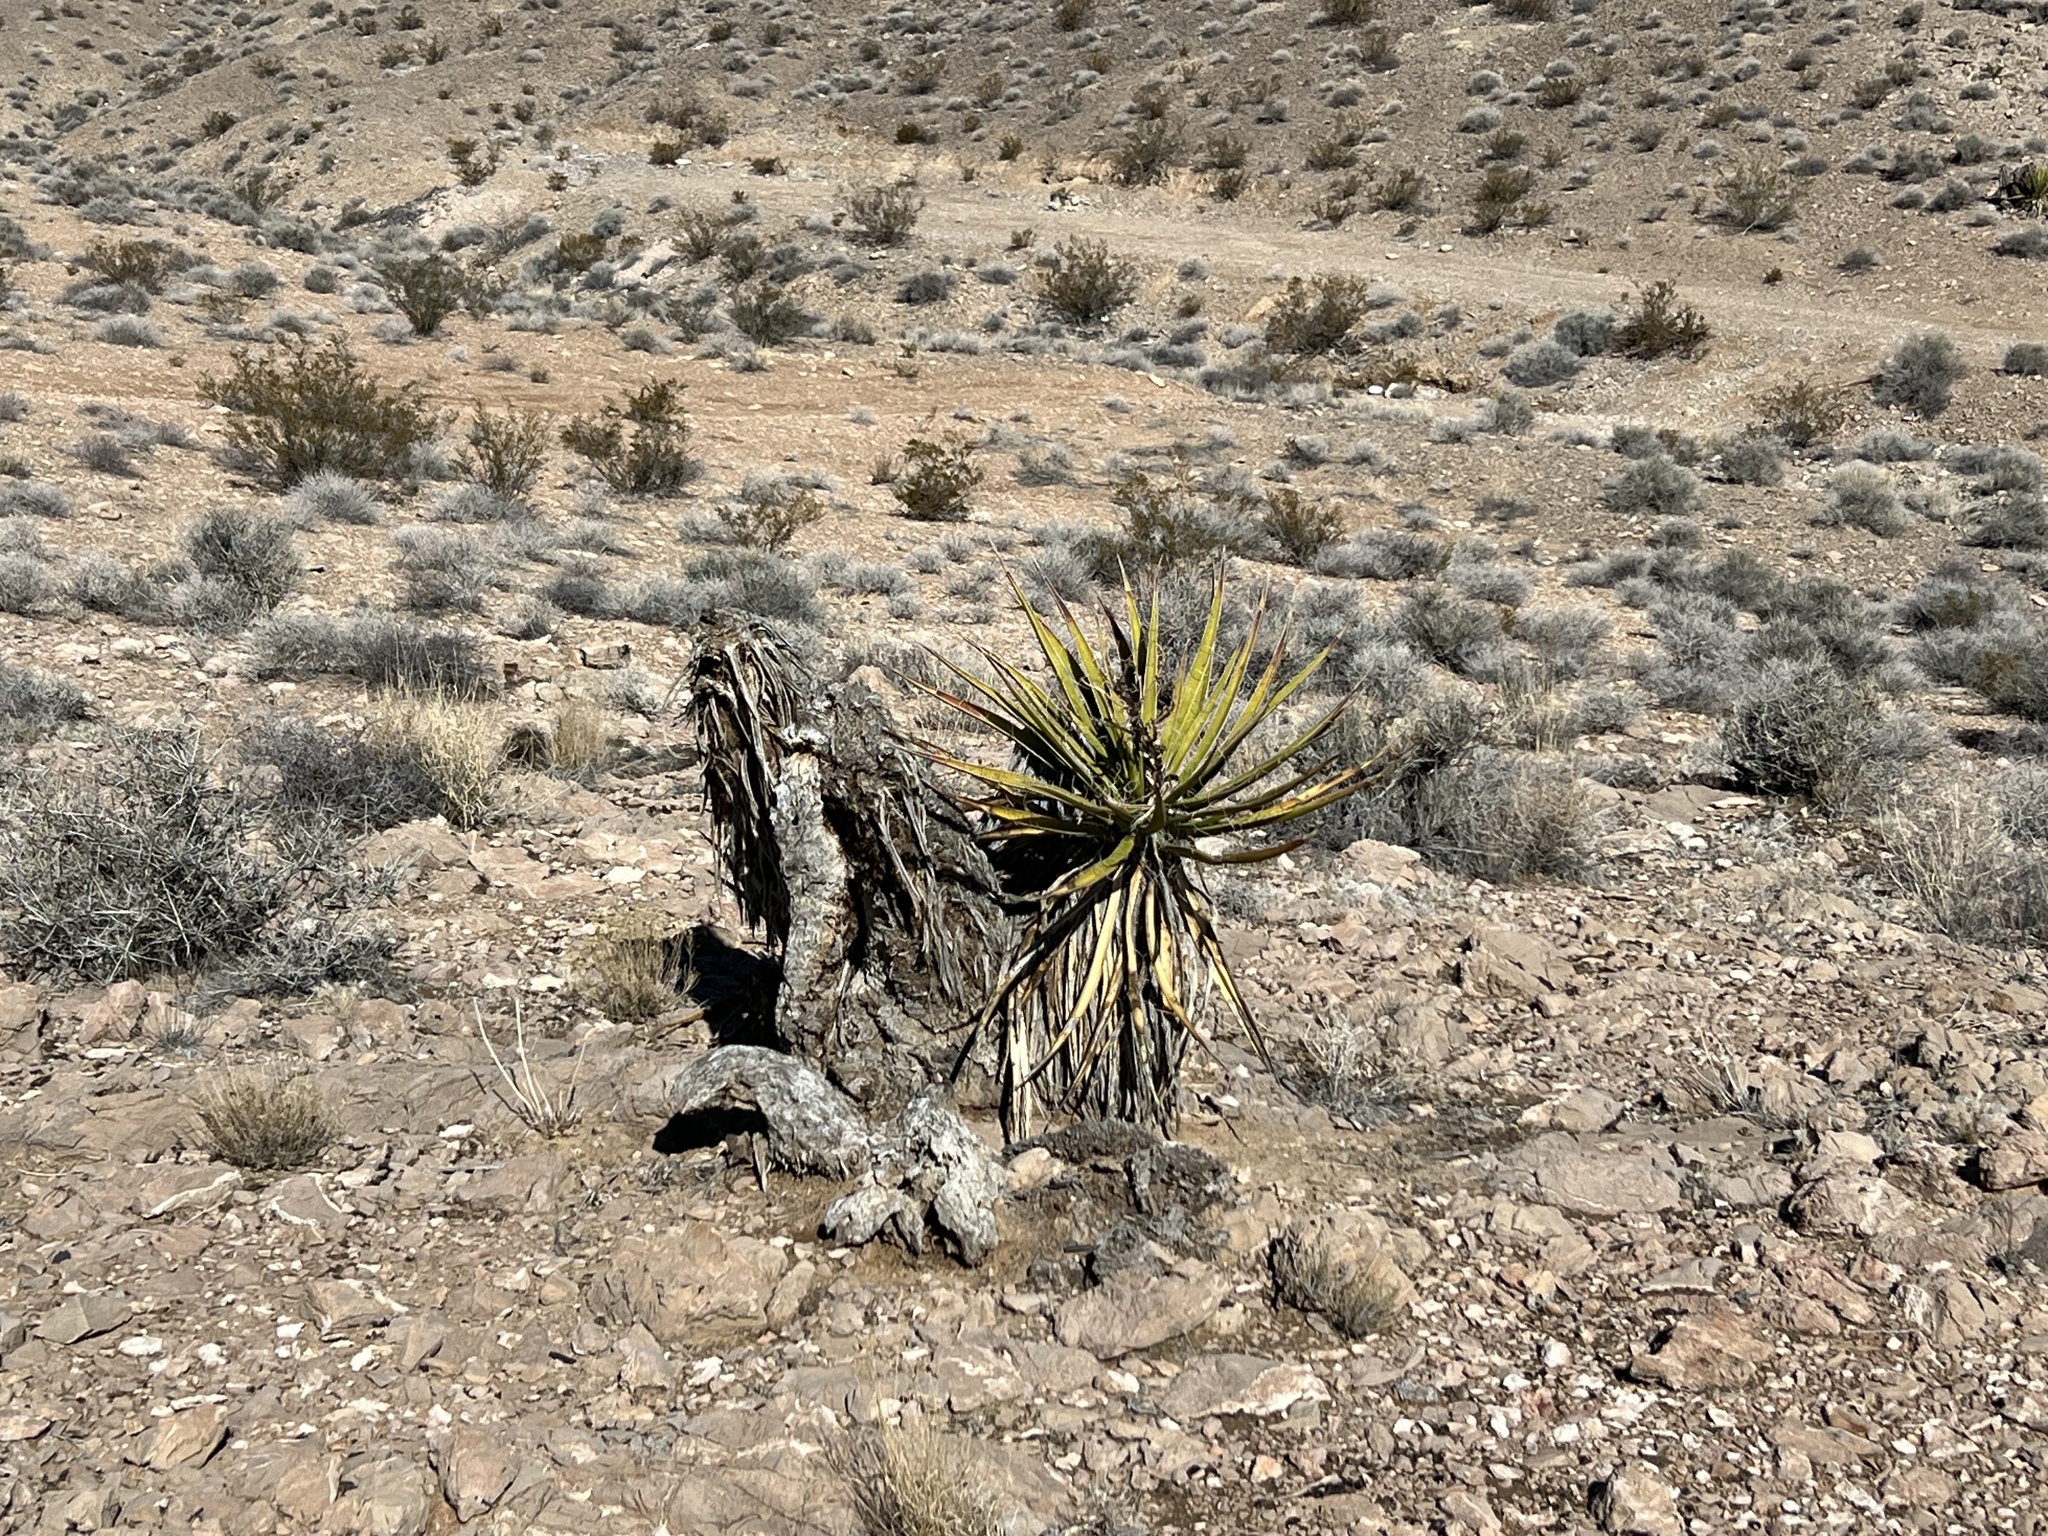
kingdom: Plantae
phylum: Tracheophyta
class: Liliopsida
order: Asparagales
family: Asparagaceae
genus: Yucca
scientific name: Yucca schidigera
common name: Mojave yucca
